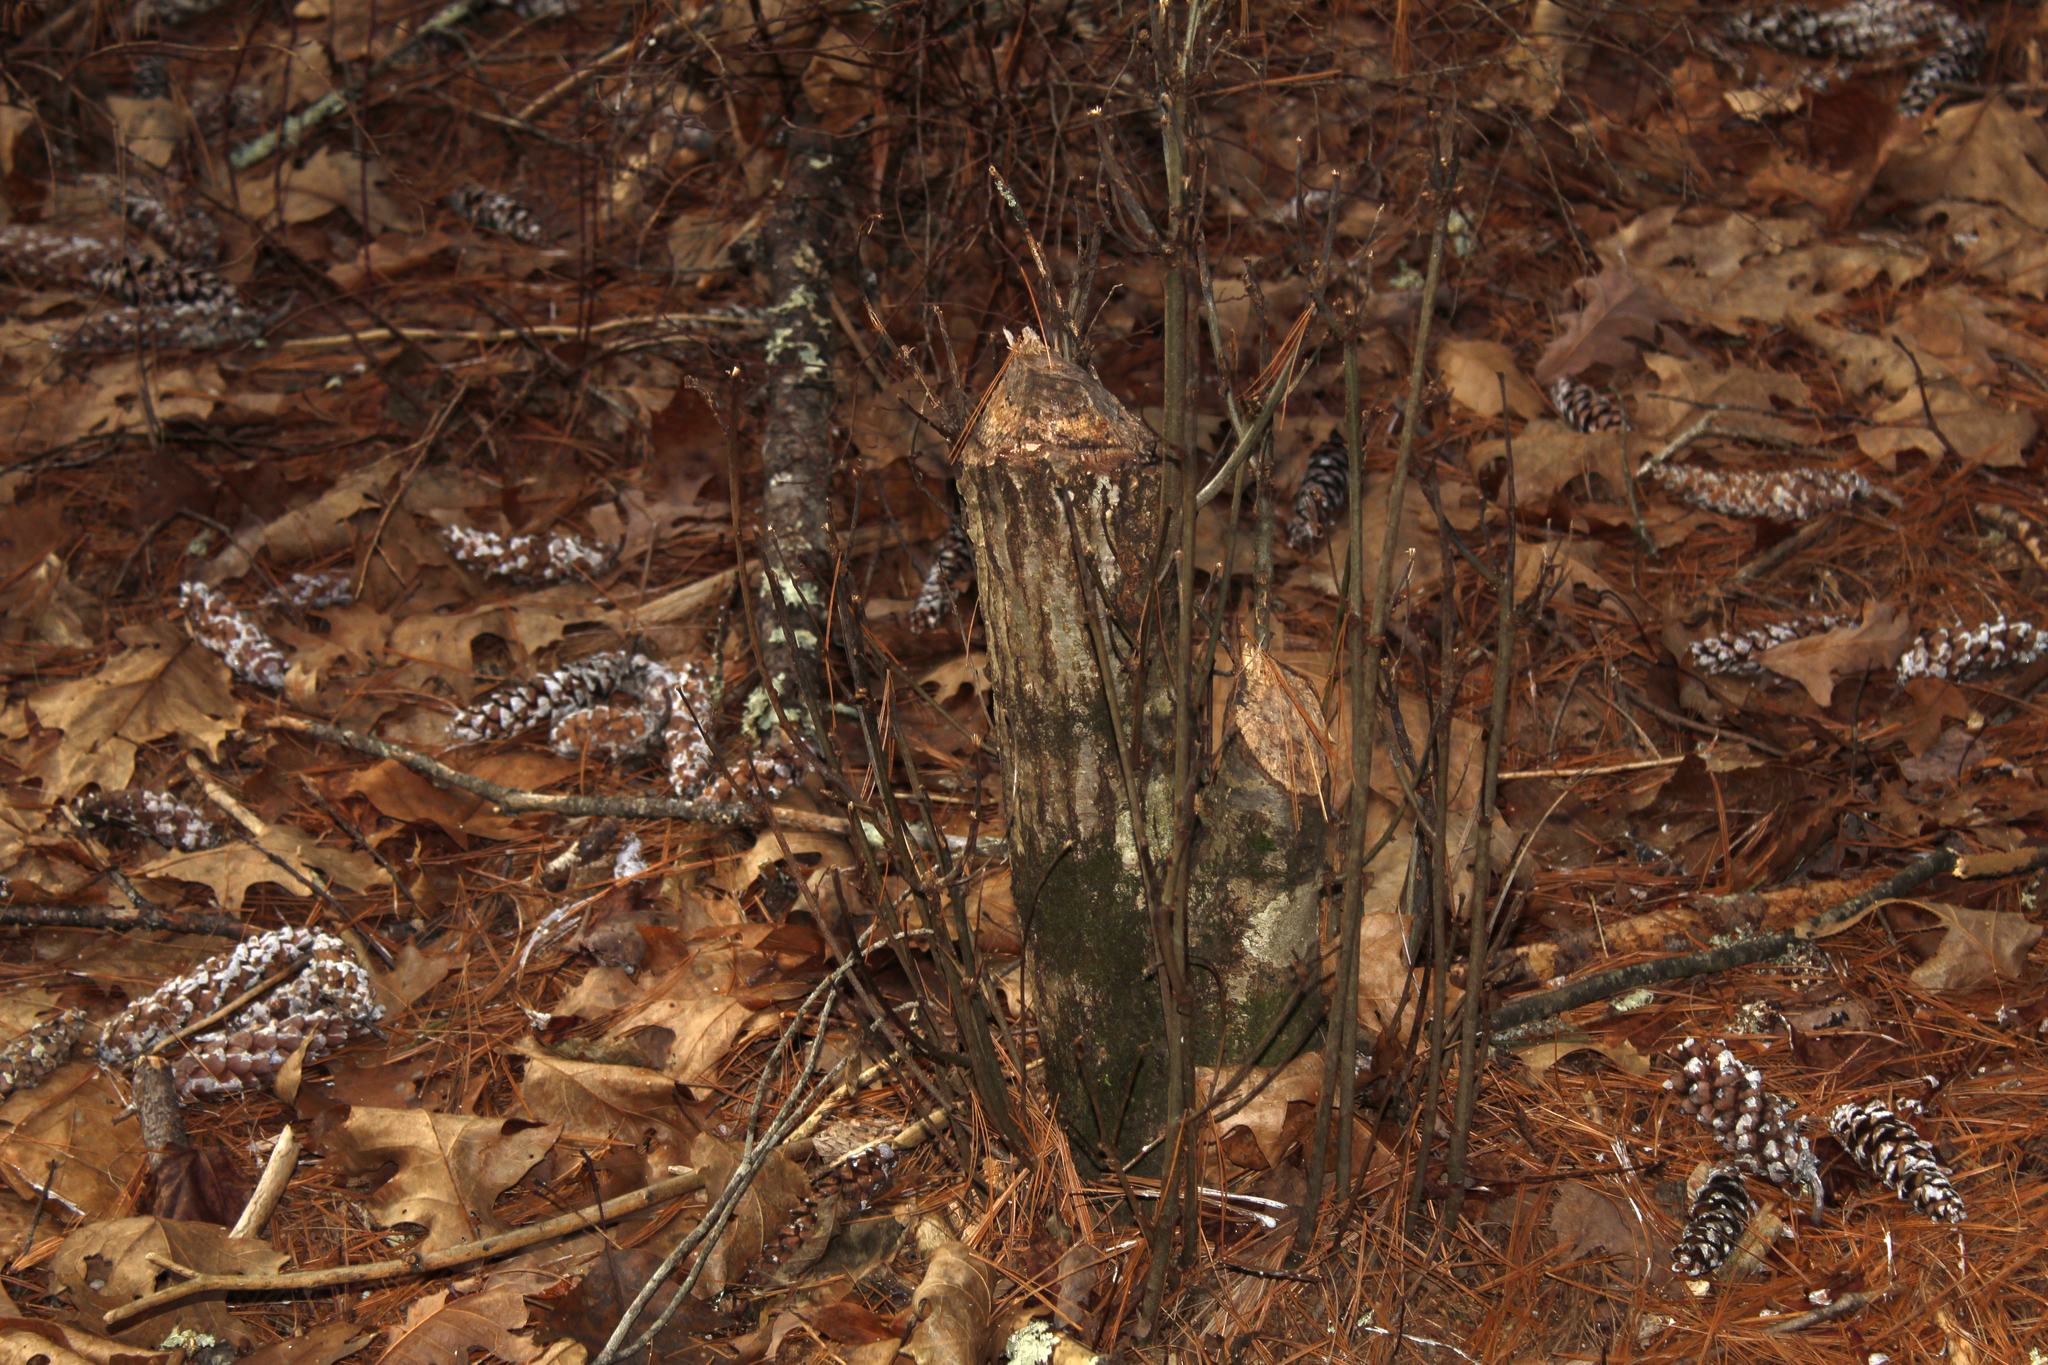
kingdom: Animalia
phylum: Chordata
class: Mammalia
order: Rodentia
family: Castoridae
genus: Castor
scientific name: Castor canadensis
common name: American beaver
